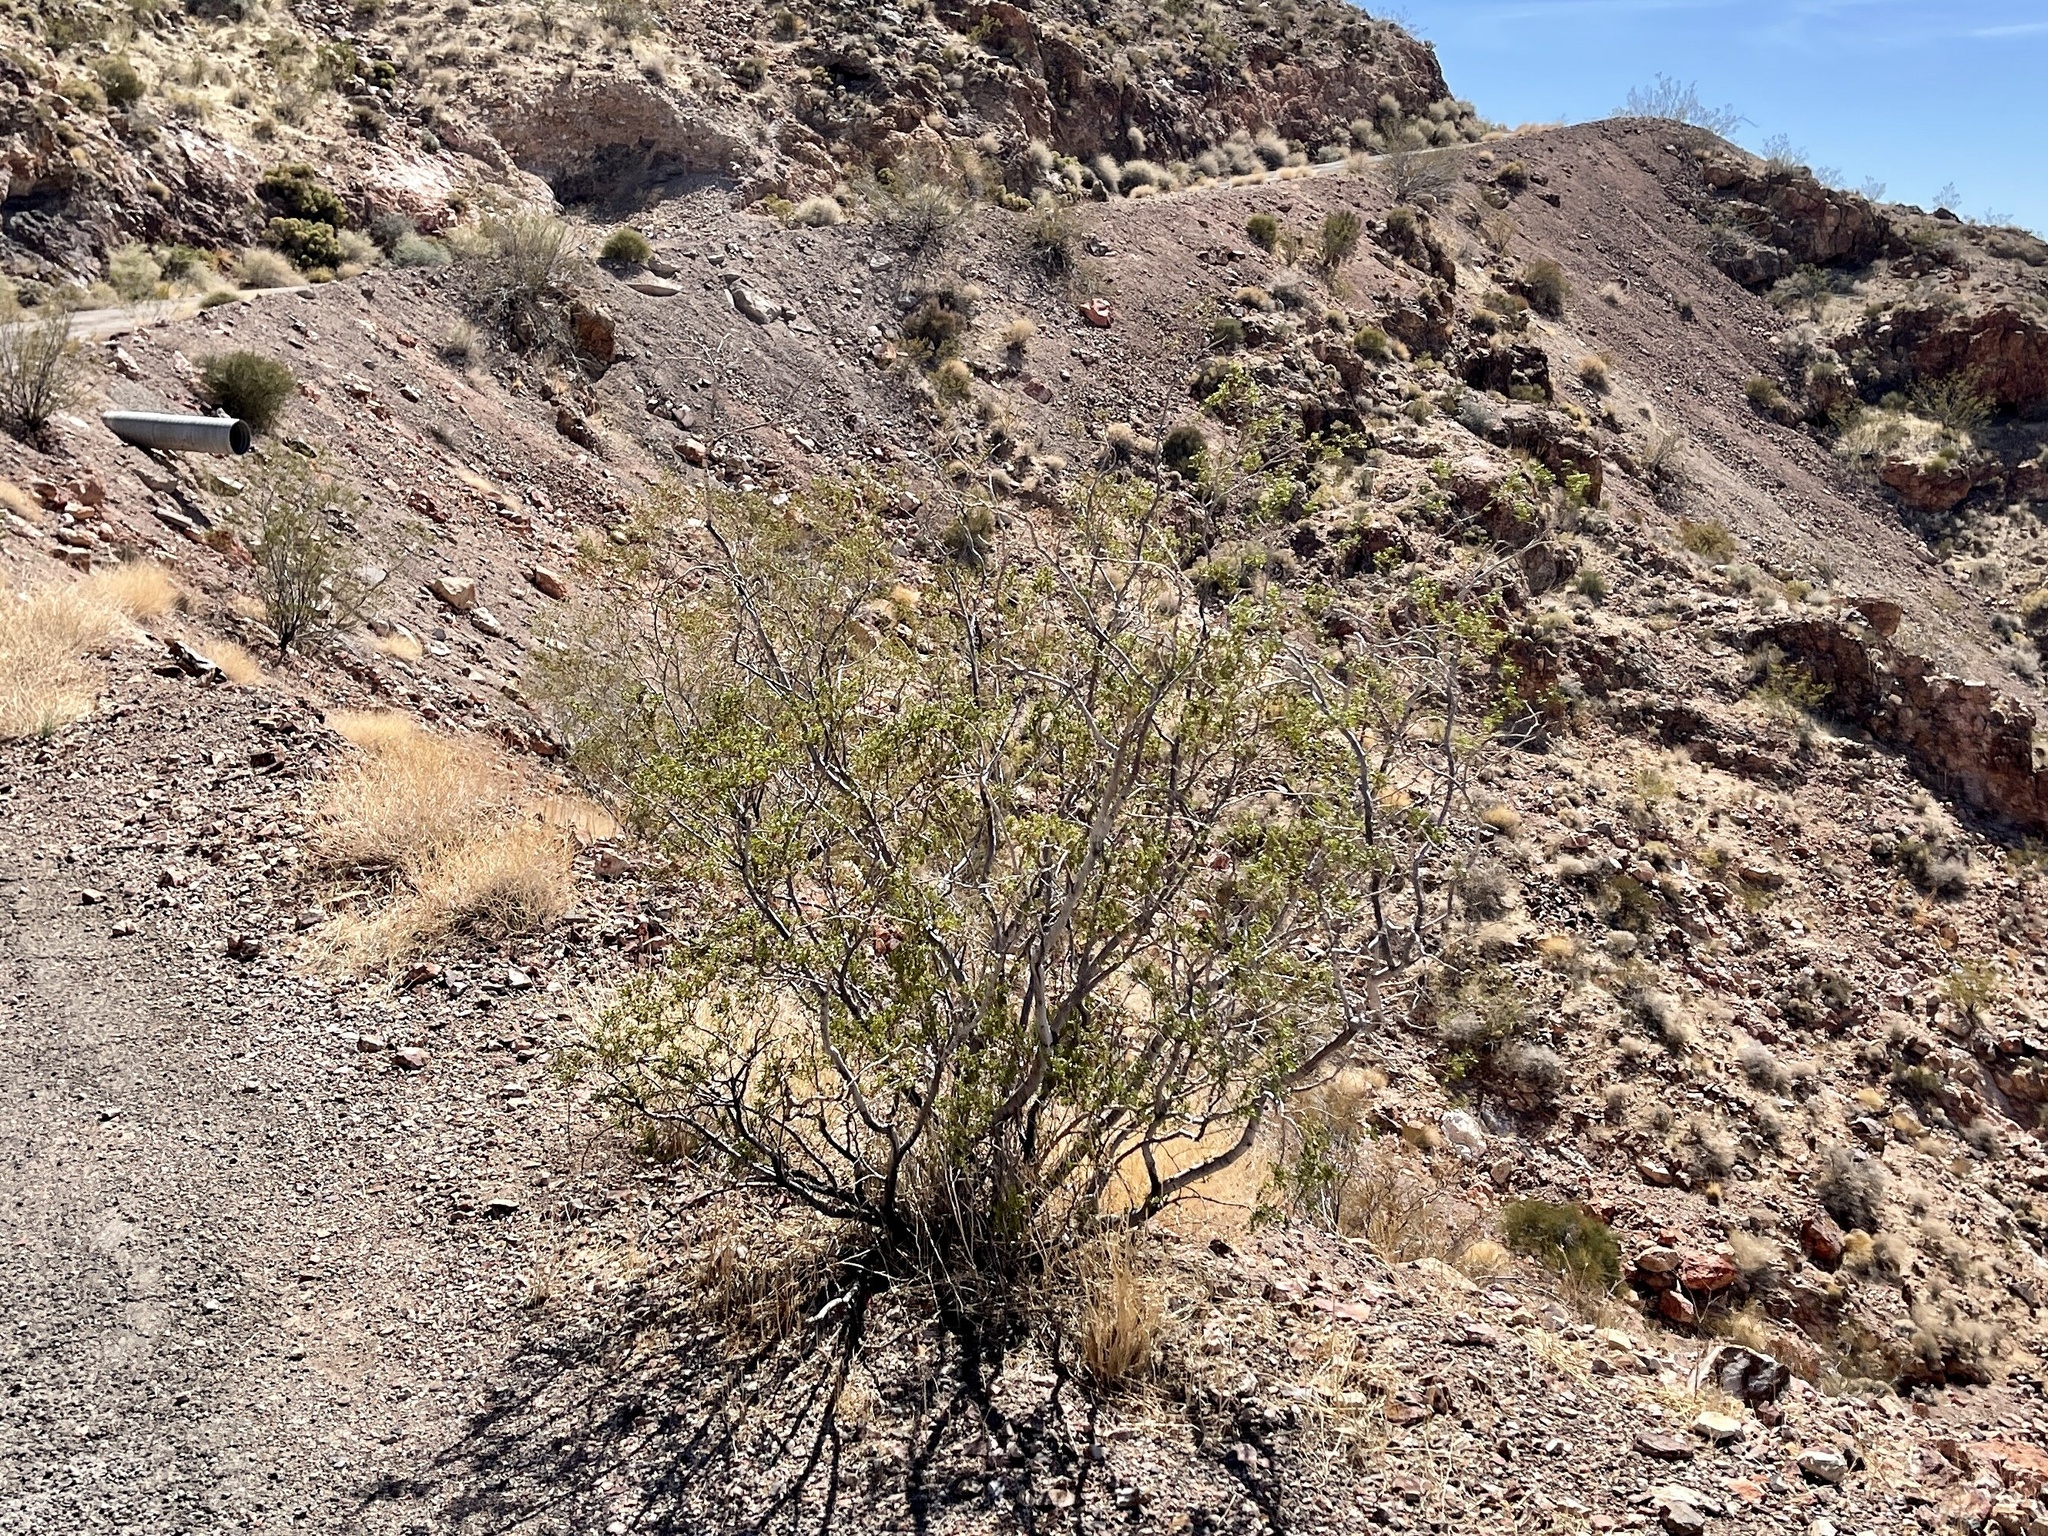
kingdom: Plantae
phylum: Tracheophyta
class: Magnoliopsida
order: Zygophyllales
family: Zygophyllaceae
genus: Larrea
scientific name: Larrea tridentata
